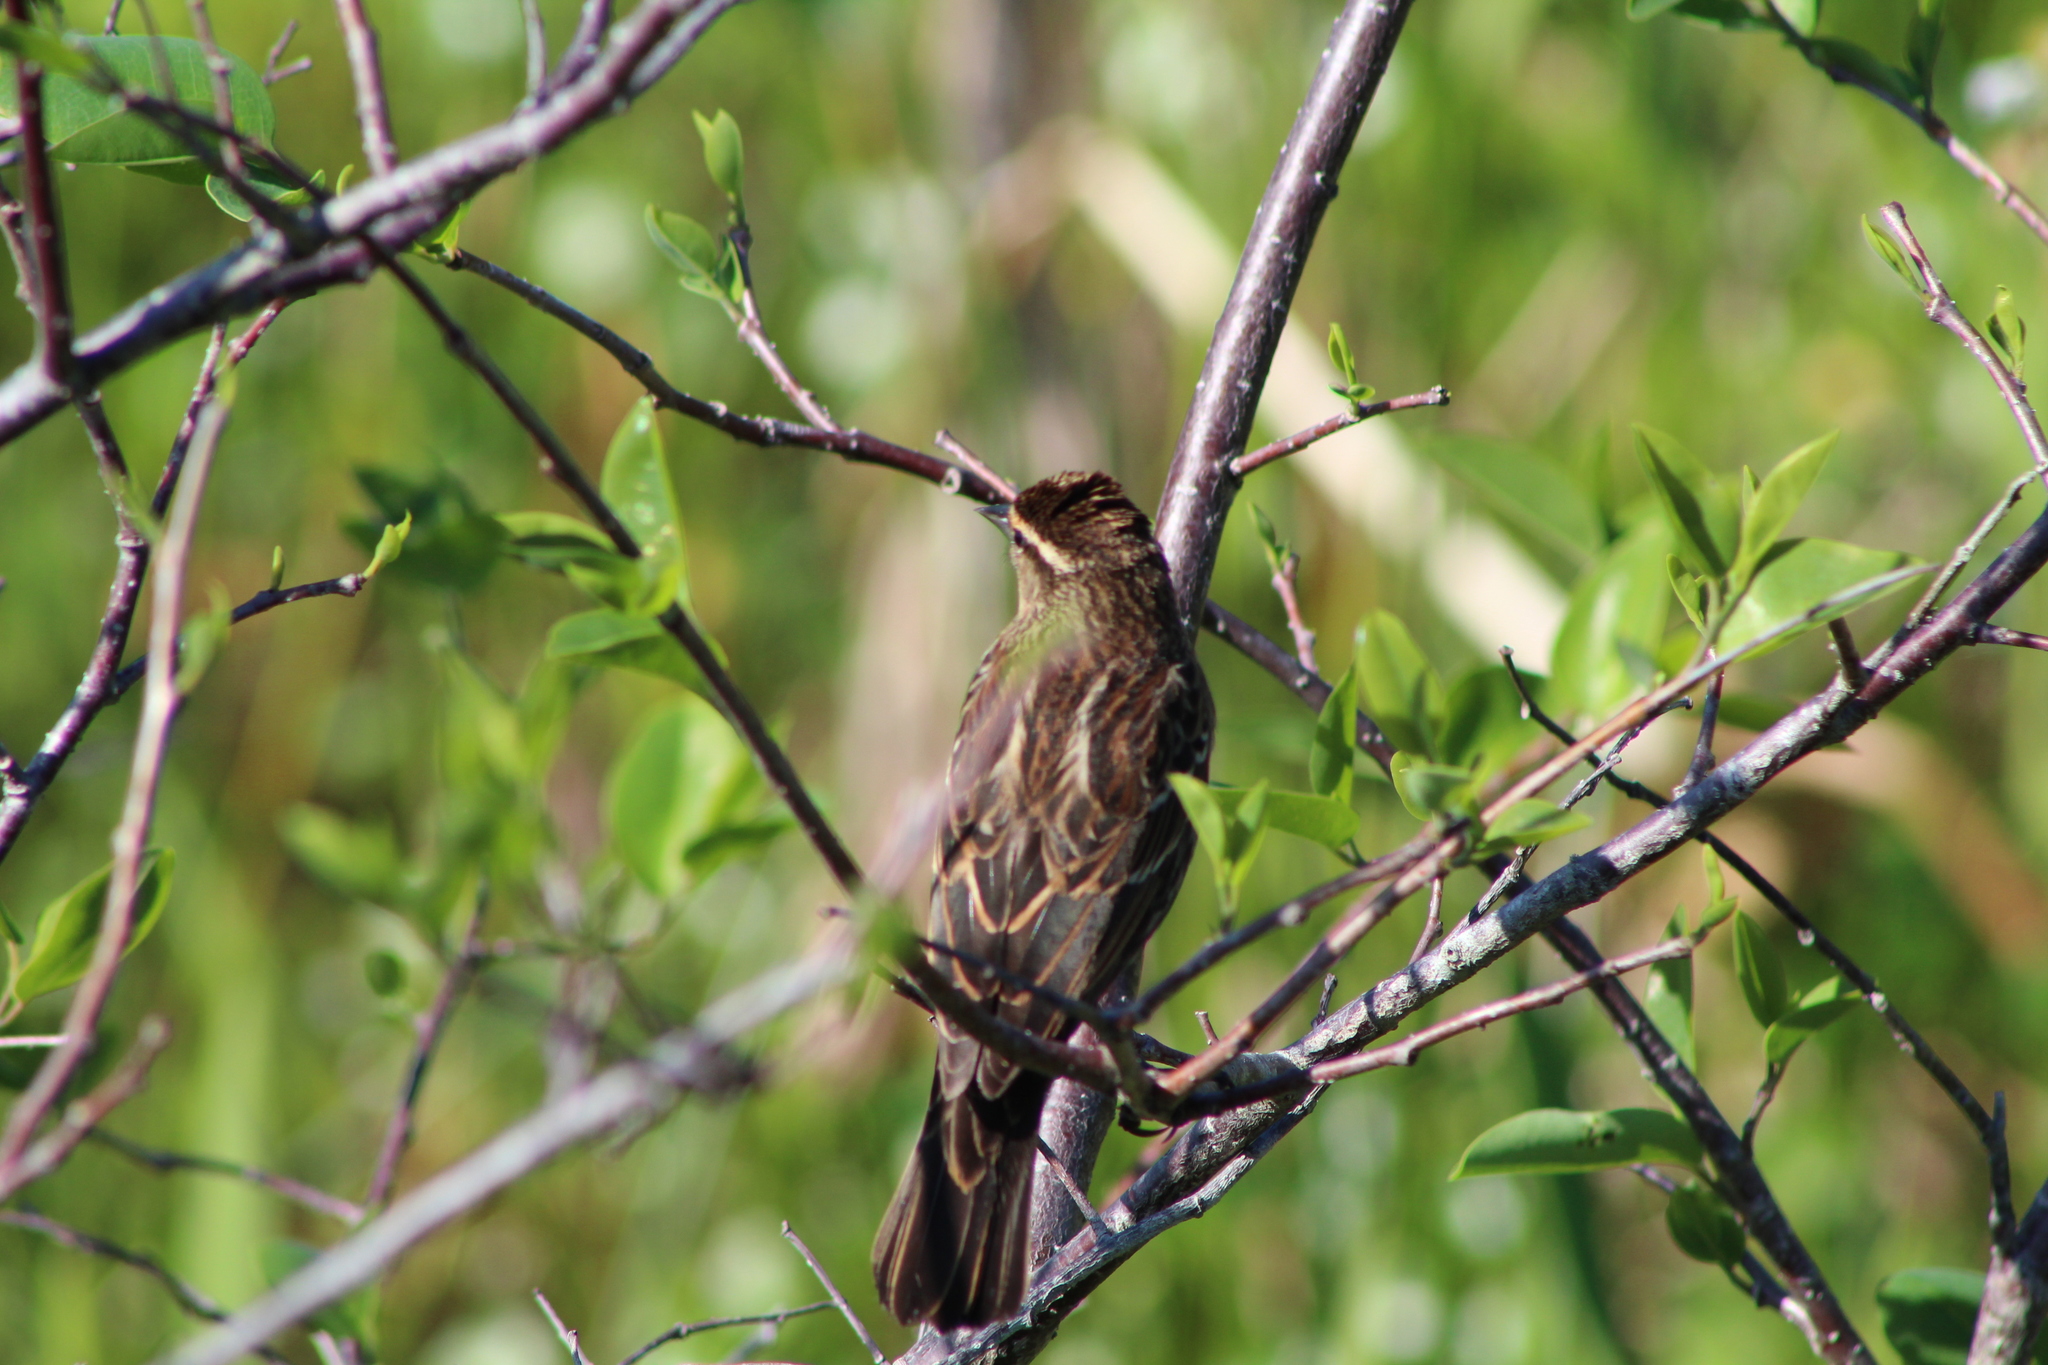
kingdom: Animalia
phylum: Chordata
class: Aves
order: Passeriformes
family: Icteridae
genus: Agelaius
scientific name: Agelaius phoeniceus
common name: Red-winged blackbird
